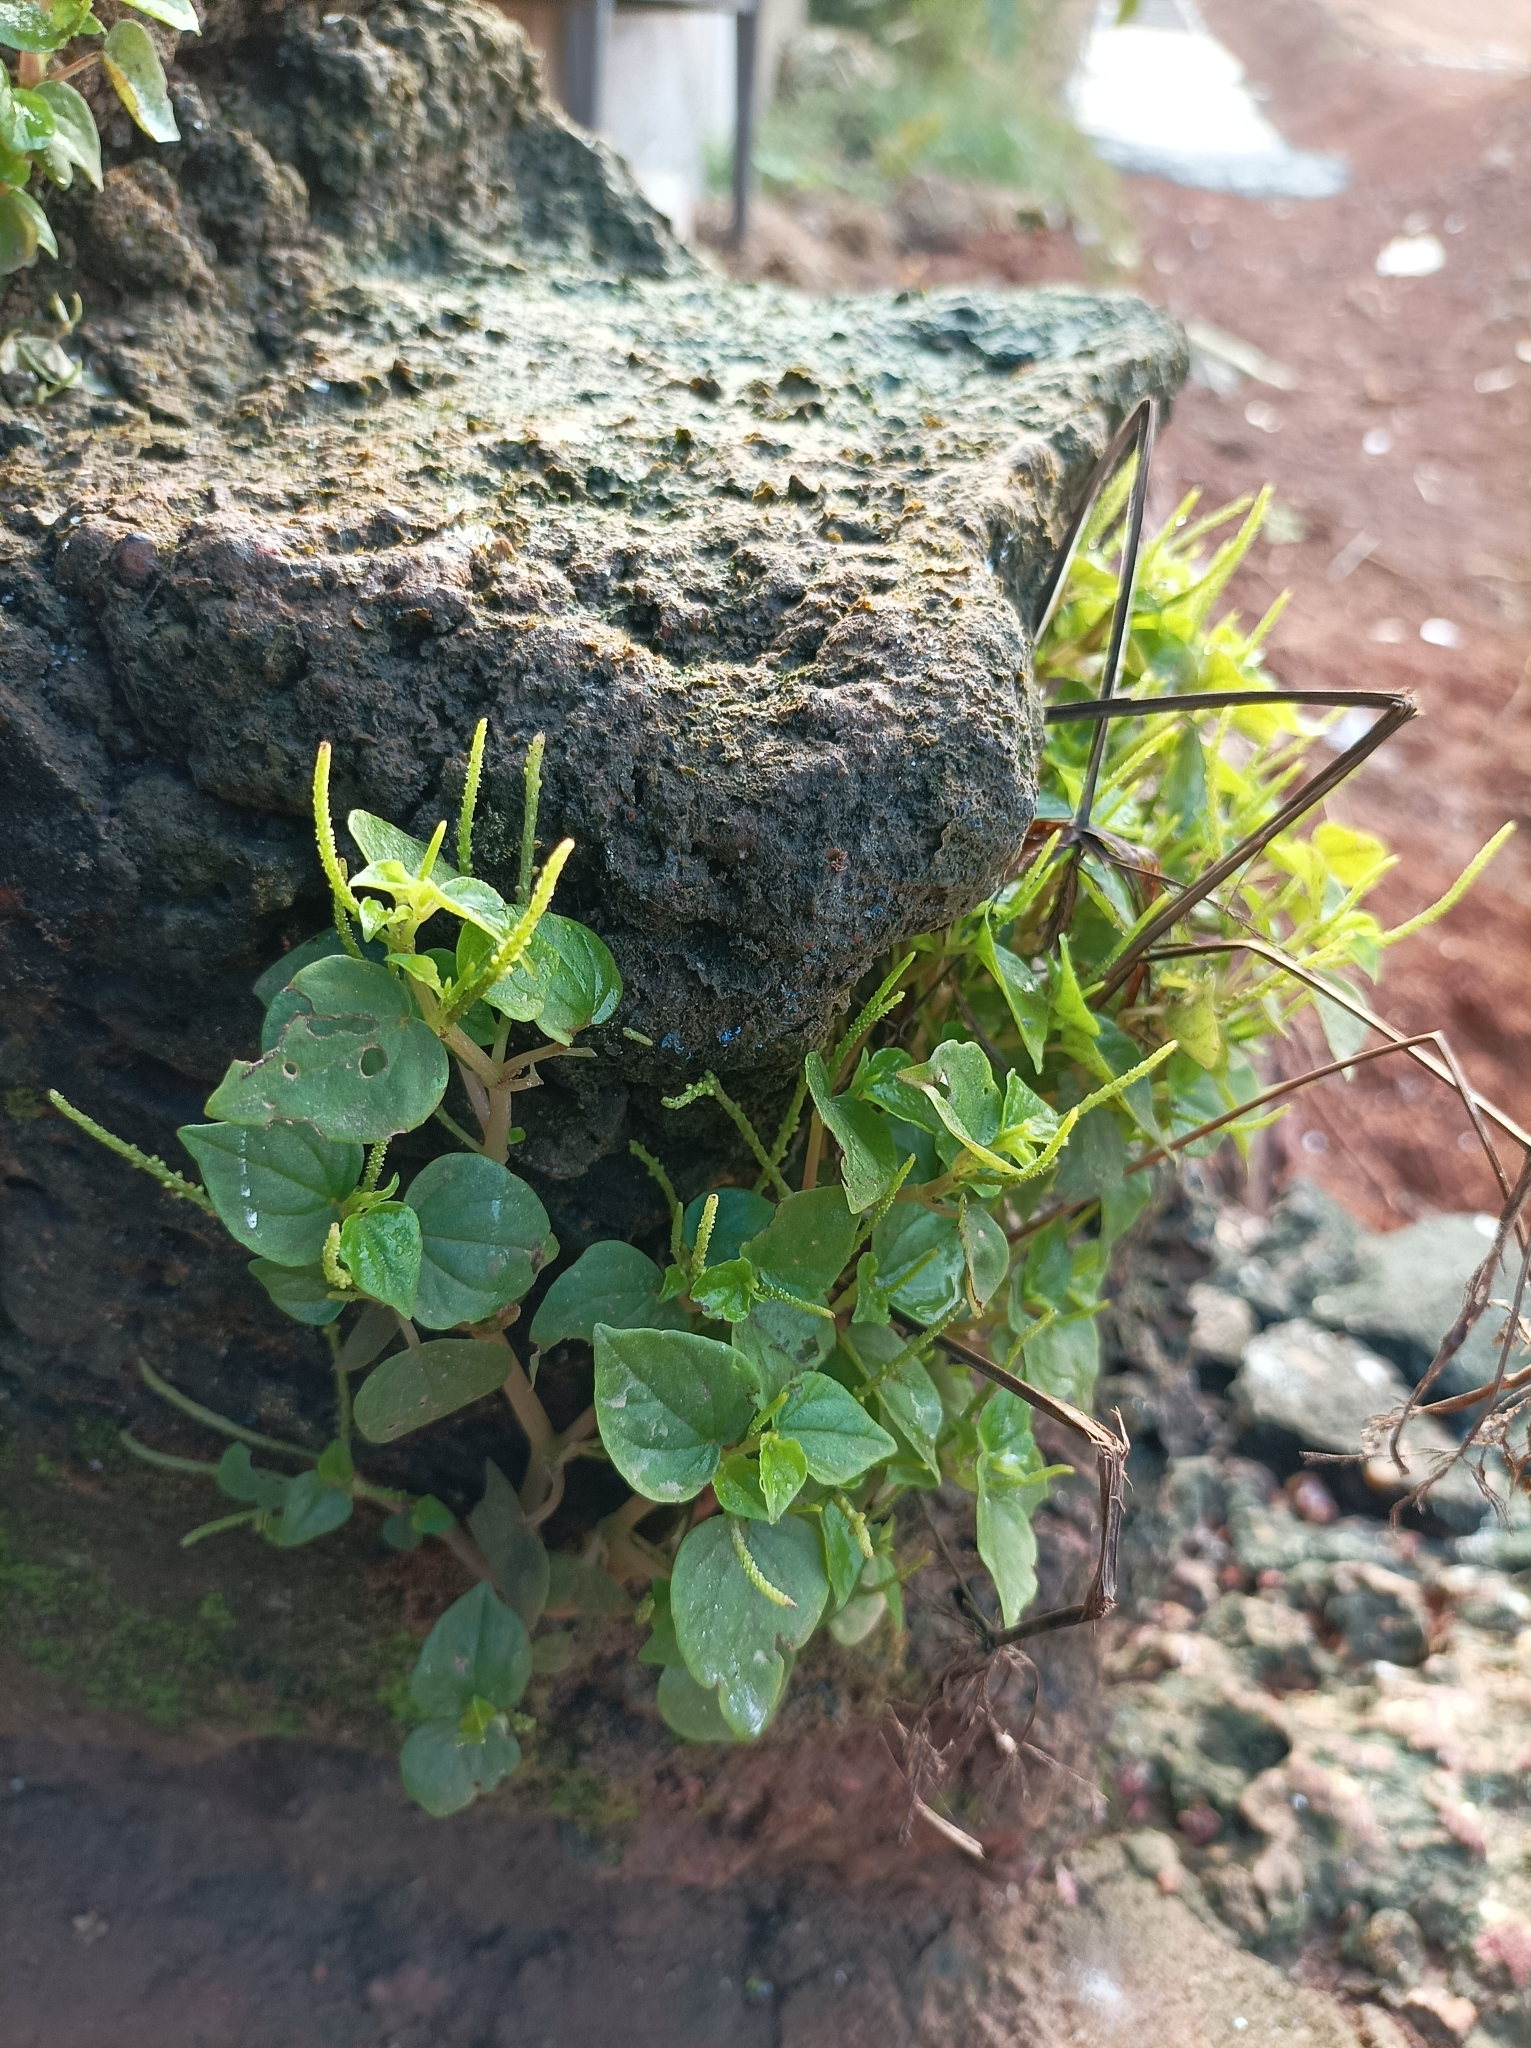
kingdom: Plantae
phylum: Tracheophyta
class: Magnoliopsida
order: Piperales
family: Piperaceae
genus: Peperomia
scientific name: Peperomia pellucida
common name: Man to man
